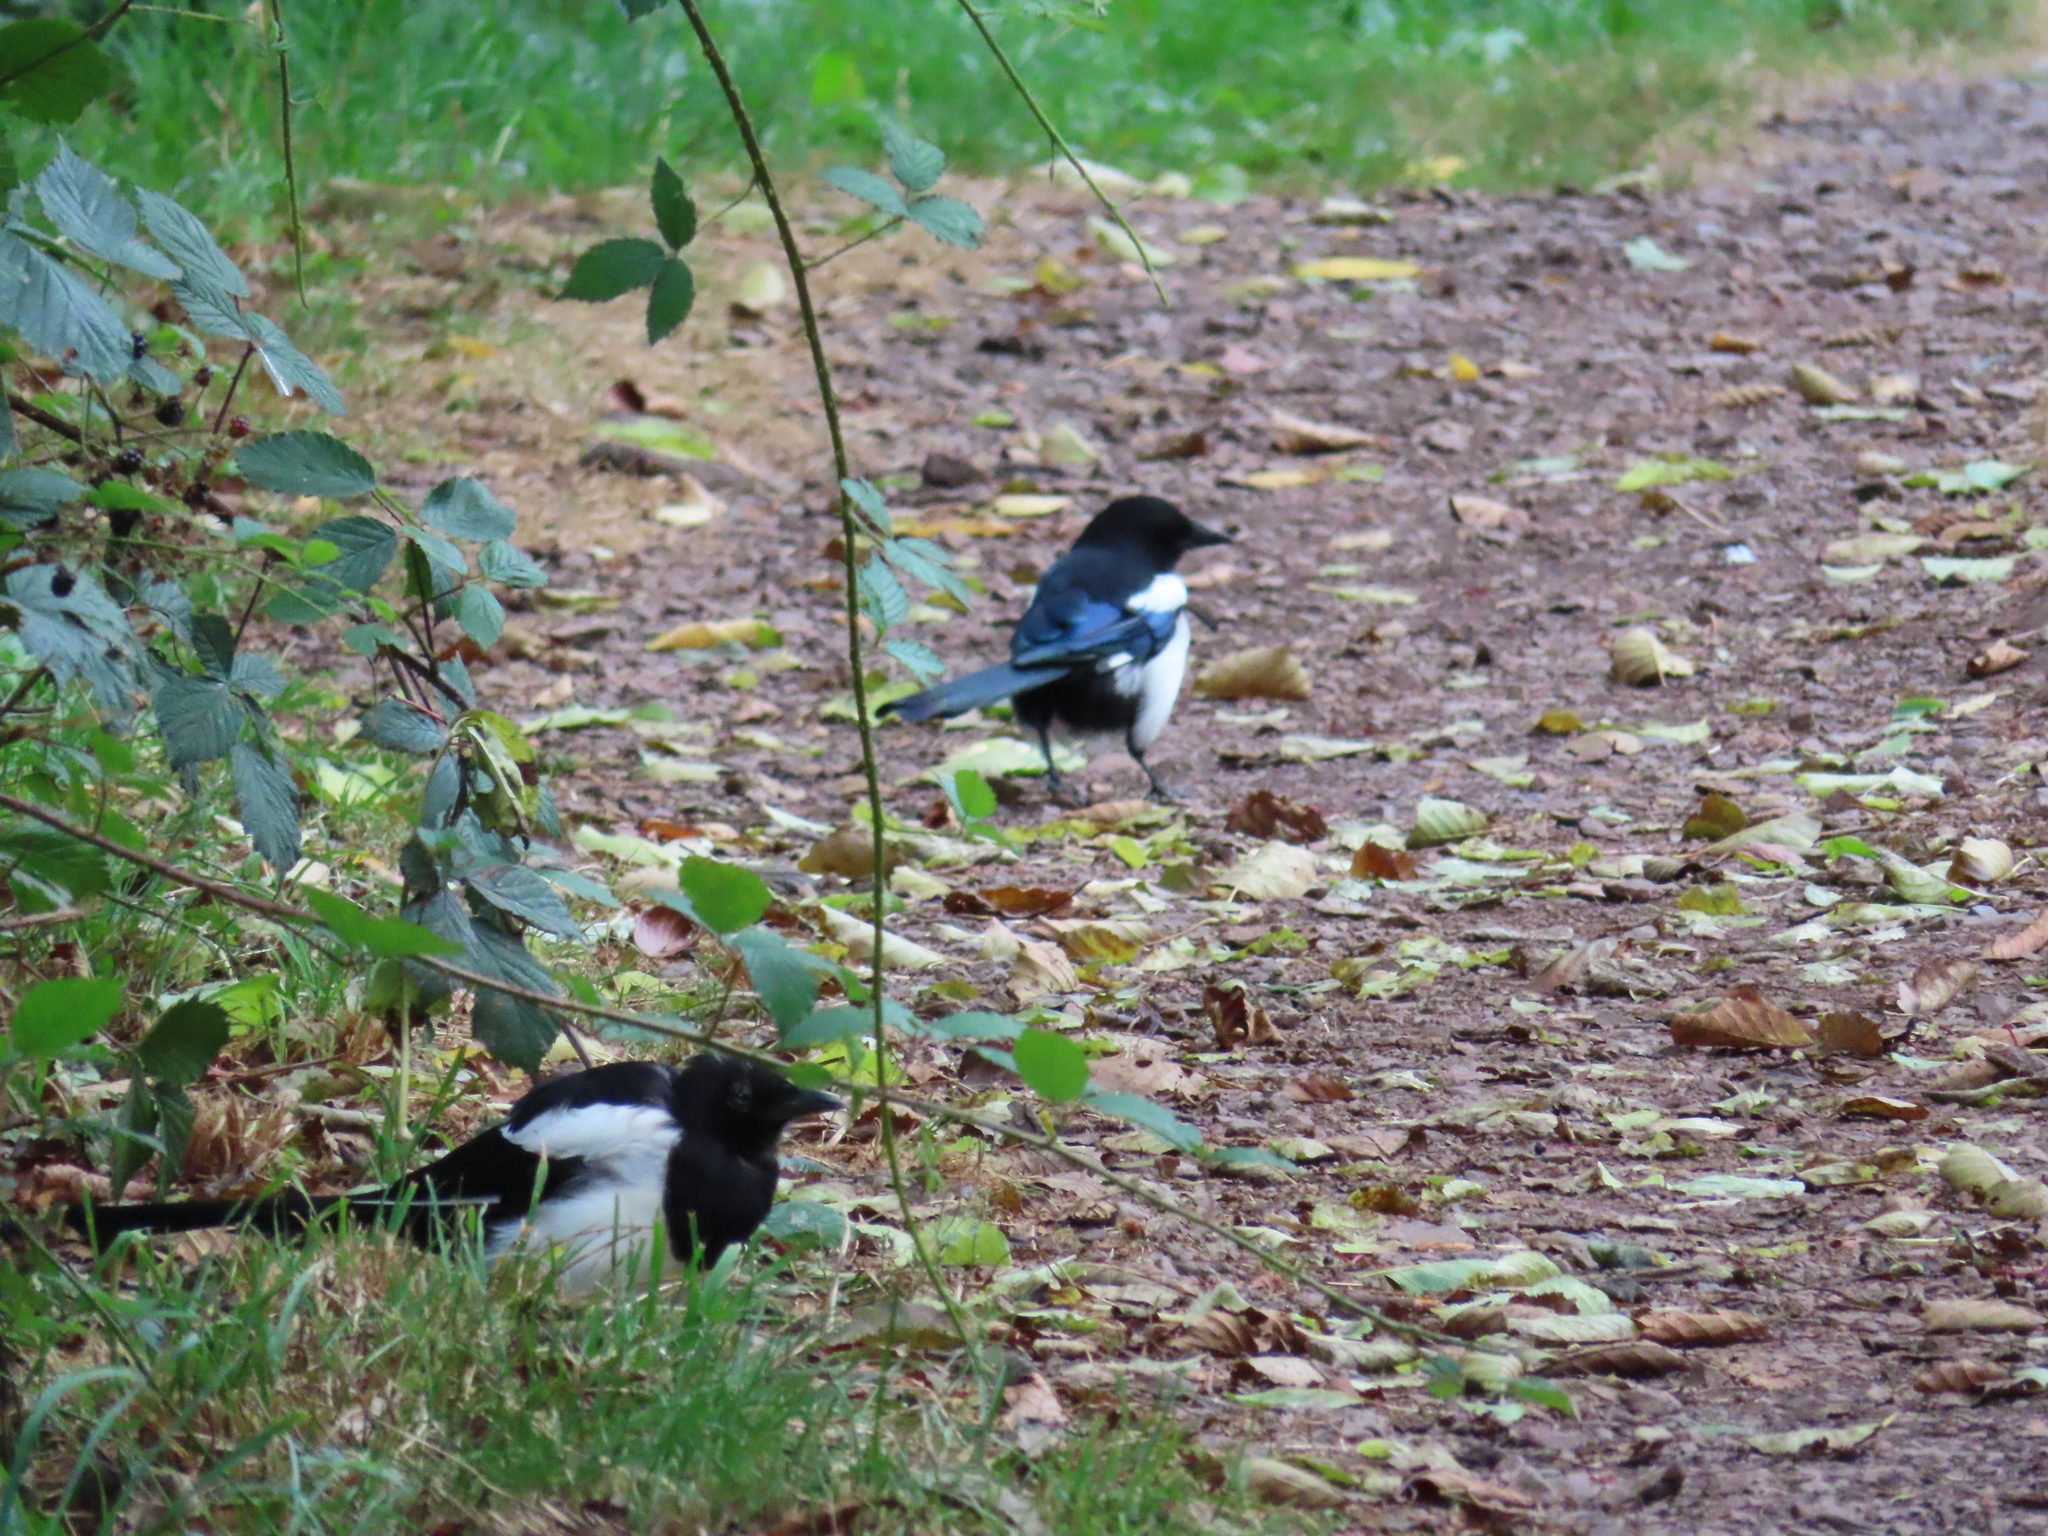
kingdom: Animalia
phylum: Chordata
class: Aves
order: Passeriformes
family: Corvidae
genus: Pica
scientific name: Pica pica
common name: Eurasian magpie
